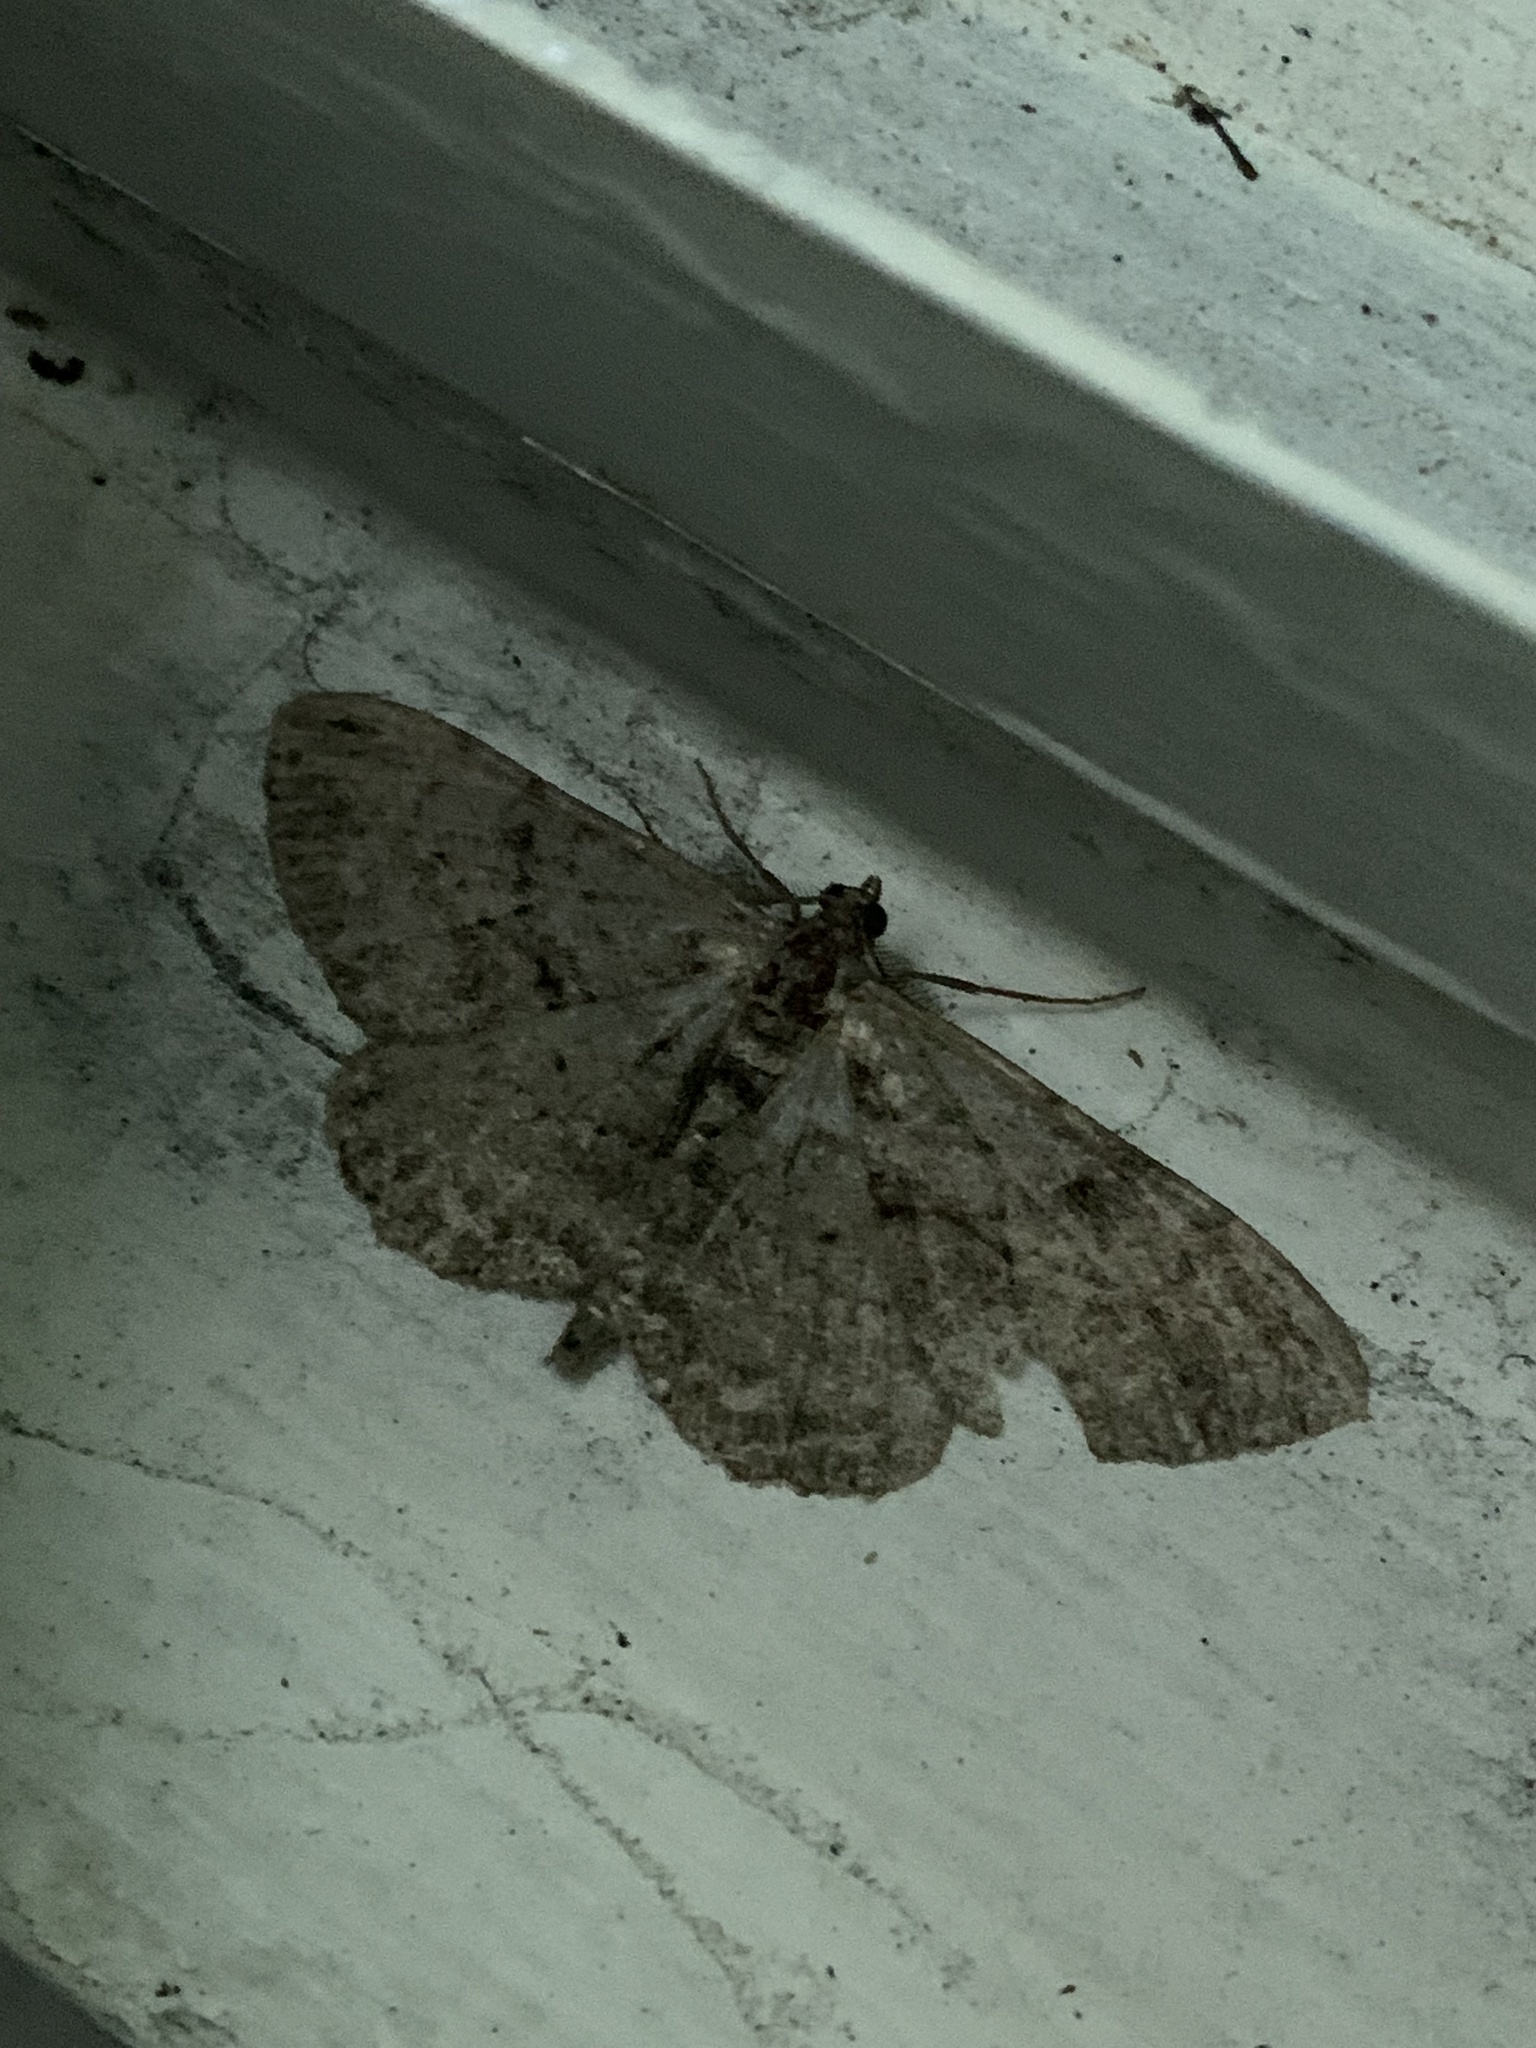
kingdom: Animalia
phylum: Arthropoda
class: Insecta
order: Lepidoptera
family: Geometridae
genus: Peribatodes
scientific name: Peribatodes rhomboidaria
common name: Willow beauty
